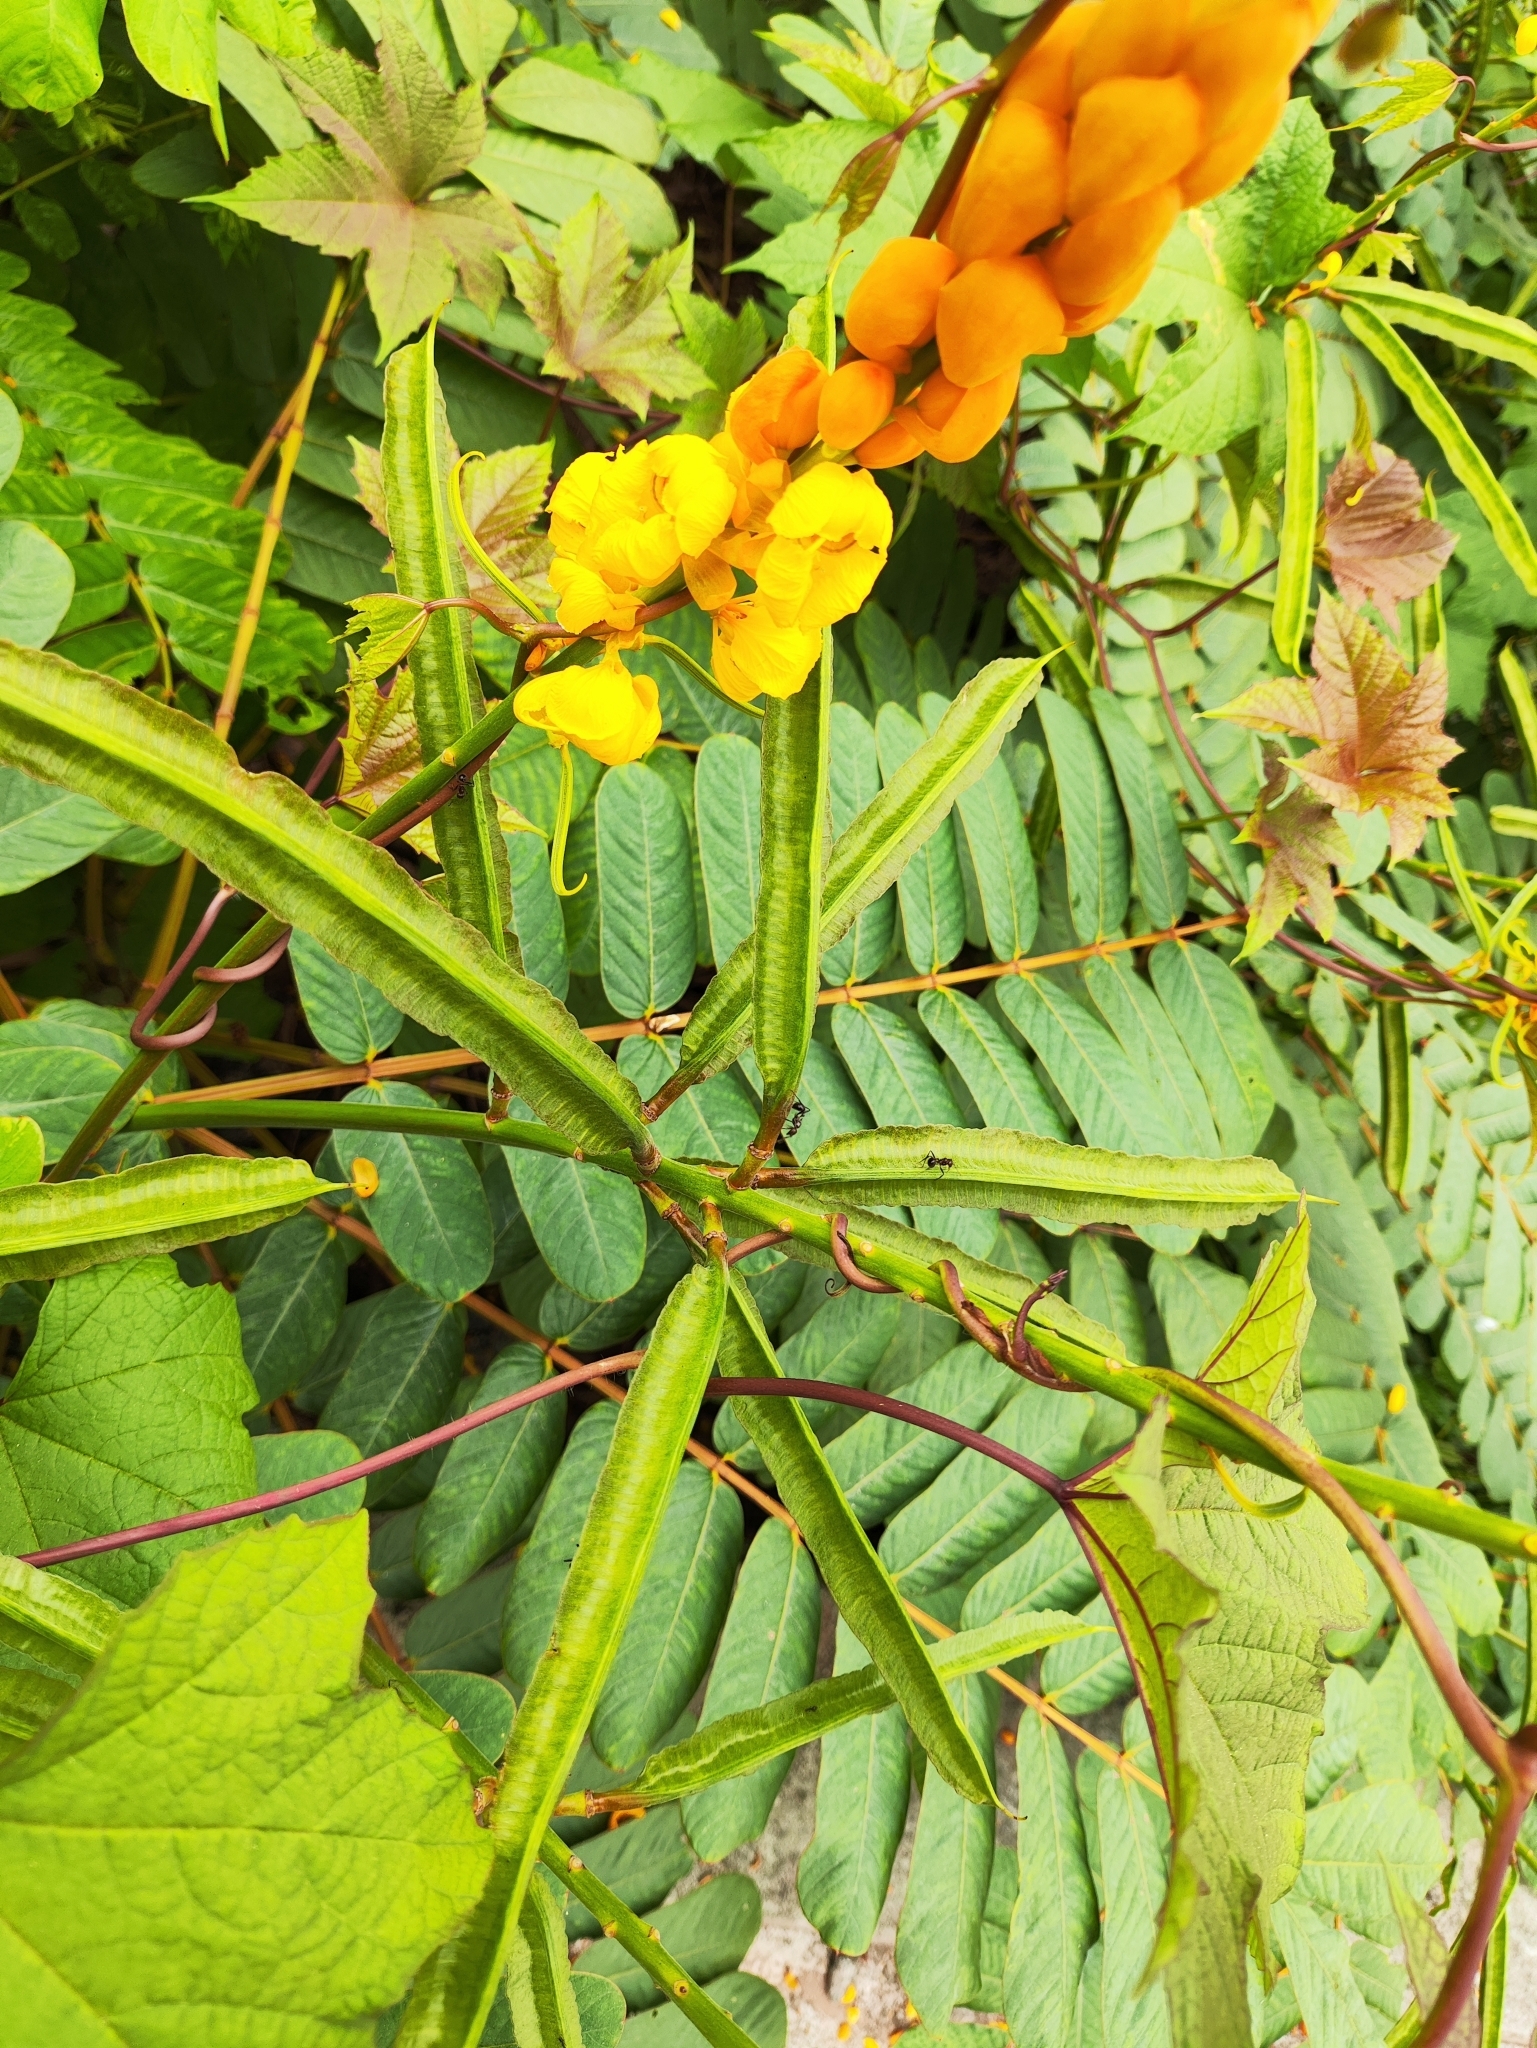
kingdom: Plantae
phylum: Tracheophyta
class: Magnoliopsida
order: Fabales
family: Fabaceae
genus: Senna
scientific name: Senna alata
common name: Emperor's candlesticks
